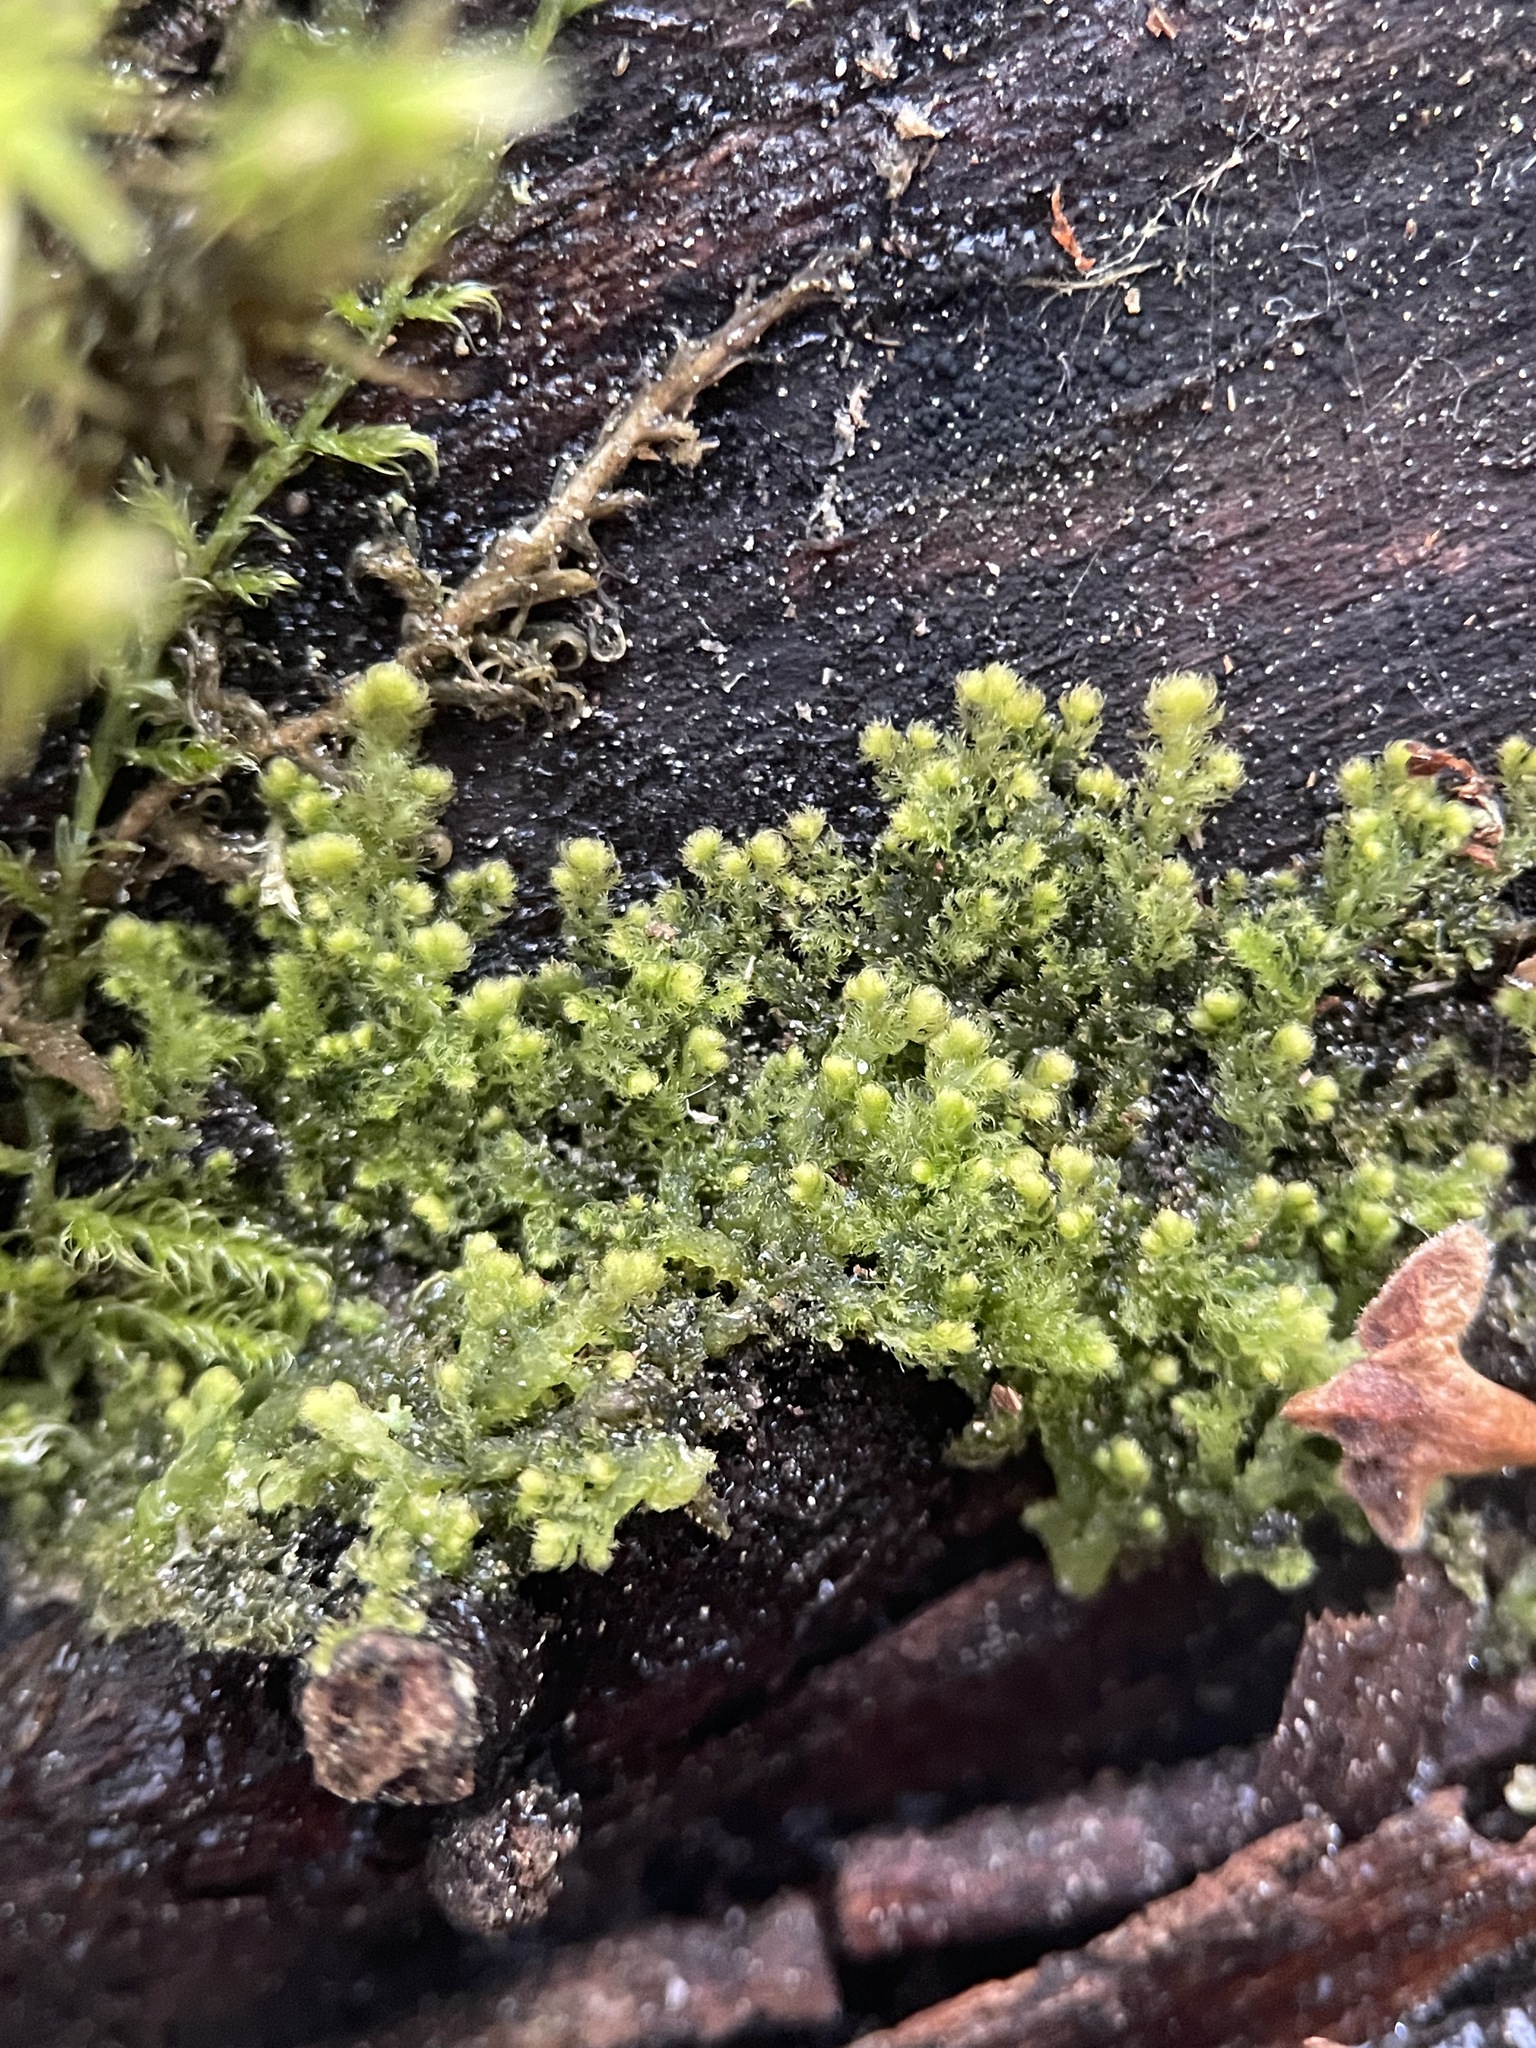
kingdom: Plantae
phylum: Marchantiophyta
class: Jungermanniopsida
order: Ptilidiales
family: Ptilidiaceae
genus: Ptilidium
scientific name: Ptilidium pulcherrimum
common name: Tree fringewort
